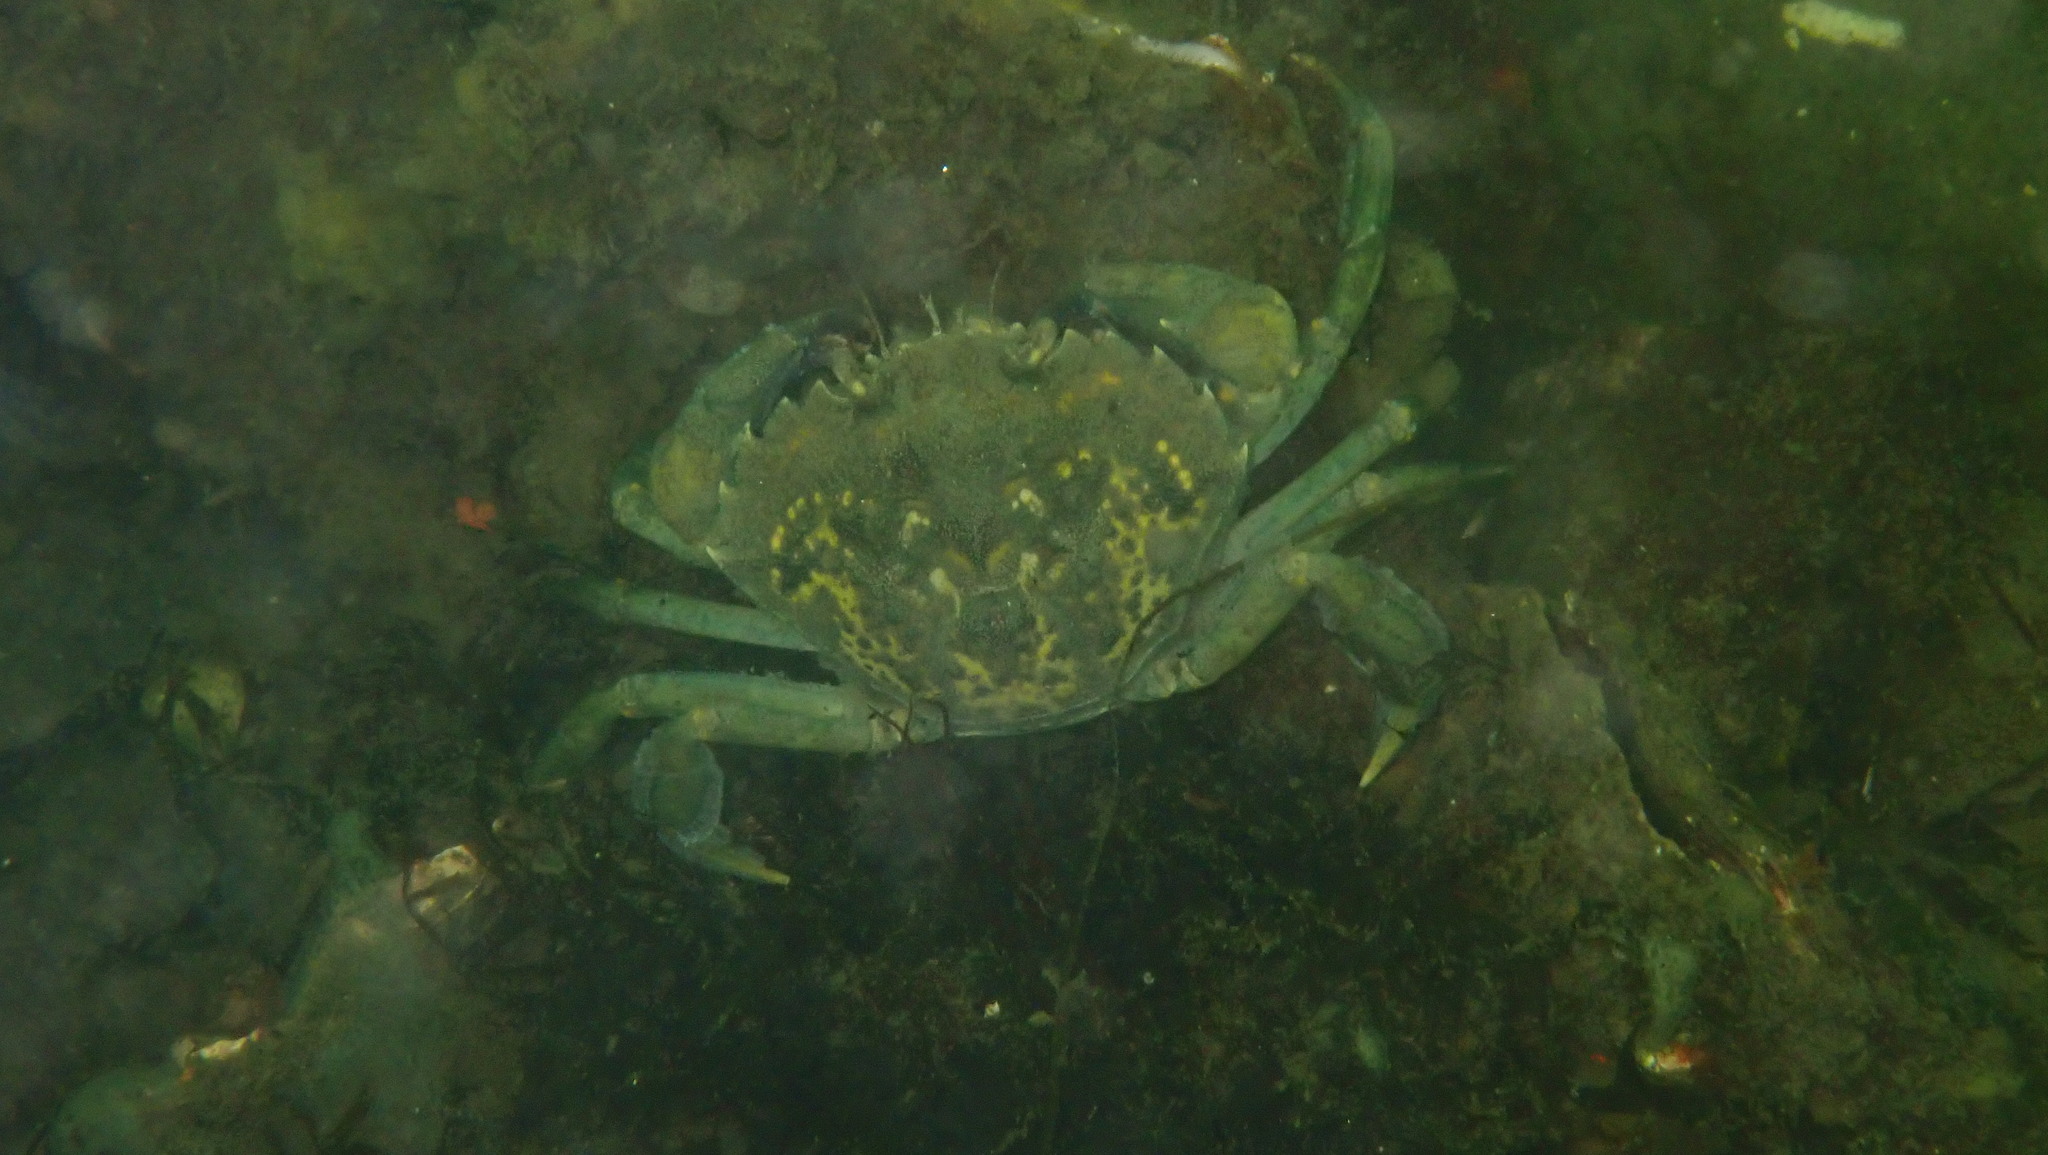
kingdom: Animalia
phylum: Arthropoda
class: Malacostraca
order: Decapoda
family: Carcinidae
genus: Carcinus
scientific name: Carcinus maenas
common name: European green crab
